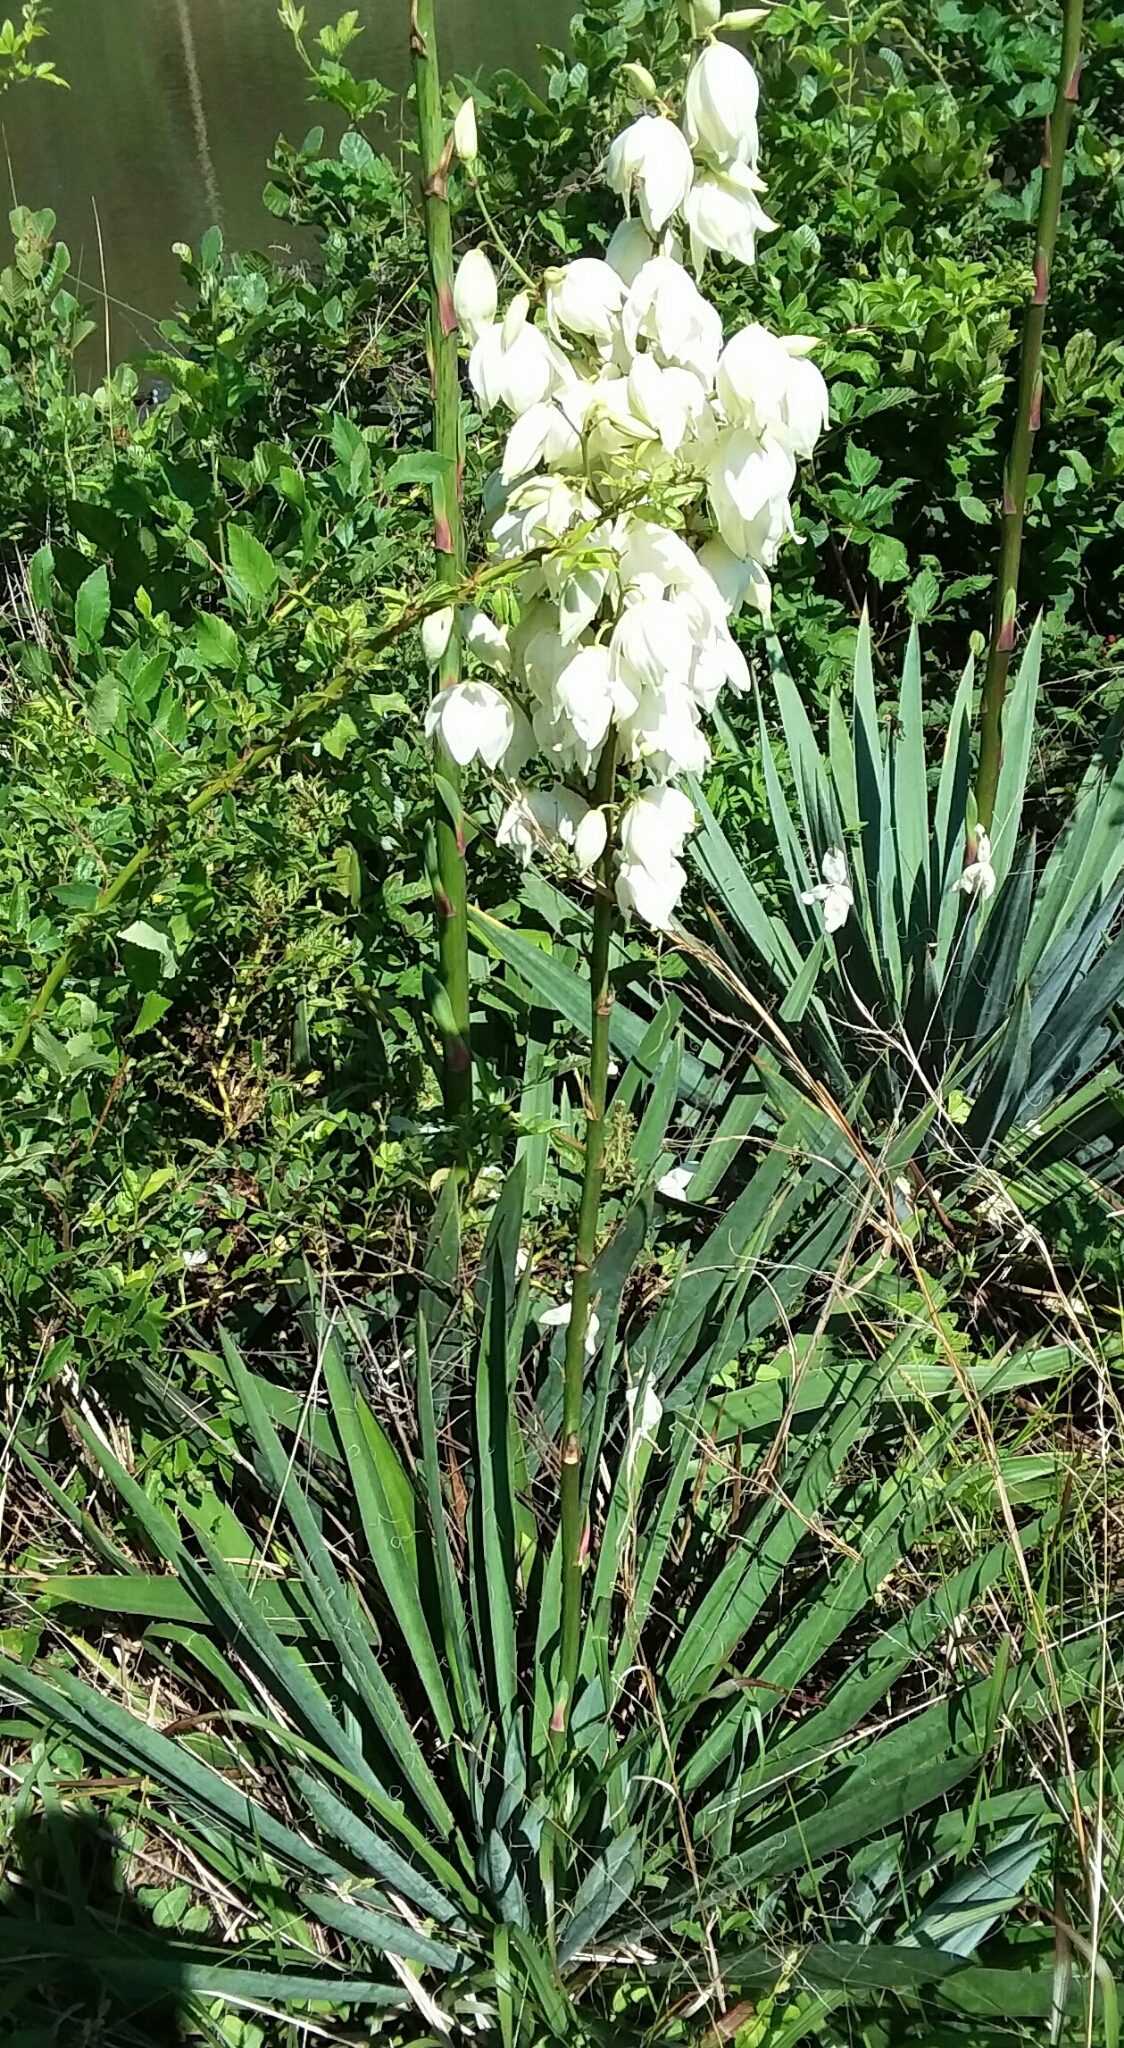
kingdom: Plantae
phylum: Tracheophyta
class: Liliopsida
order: Asparagales
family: Asparagaceae
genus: Yucca
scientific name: Yucca filamentosa
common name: Adam's-needle
